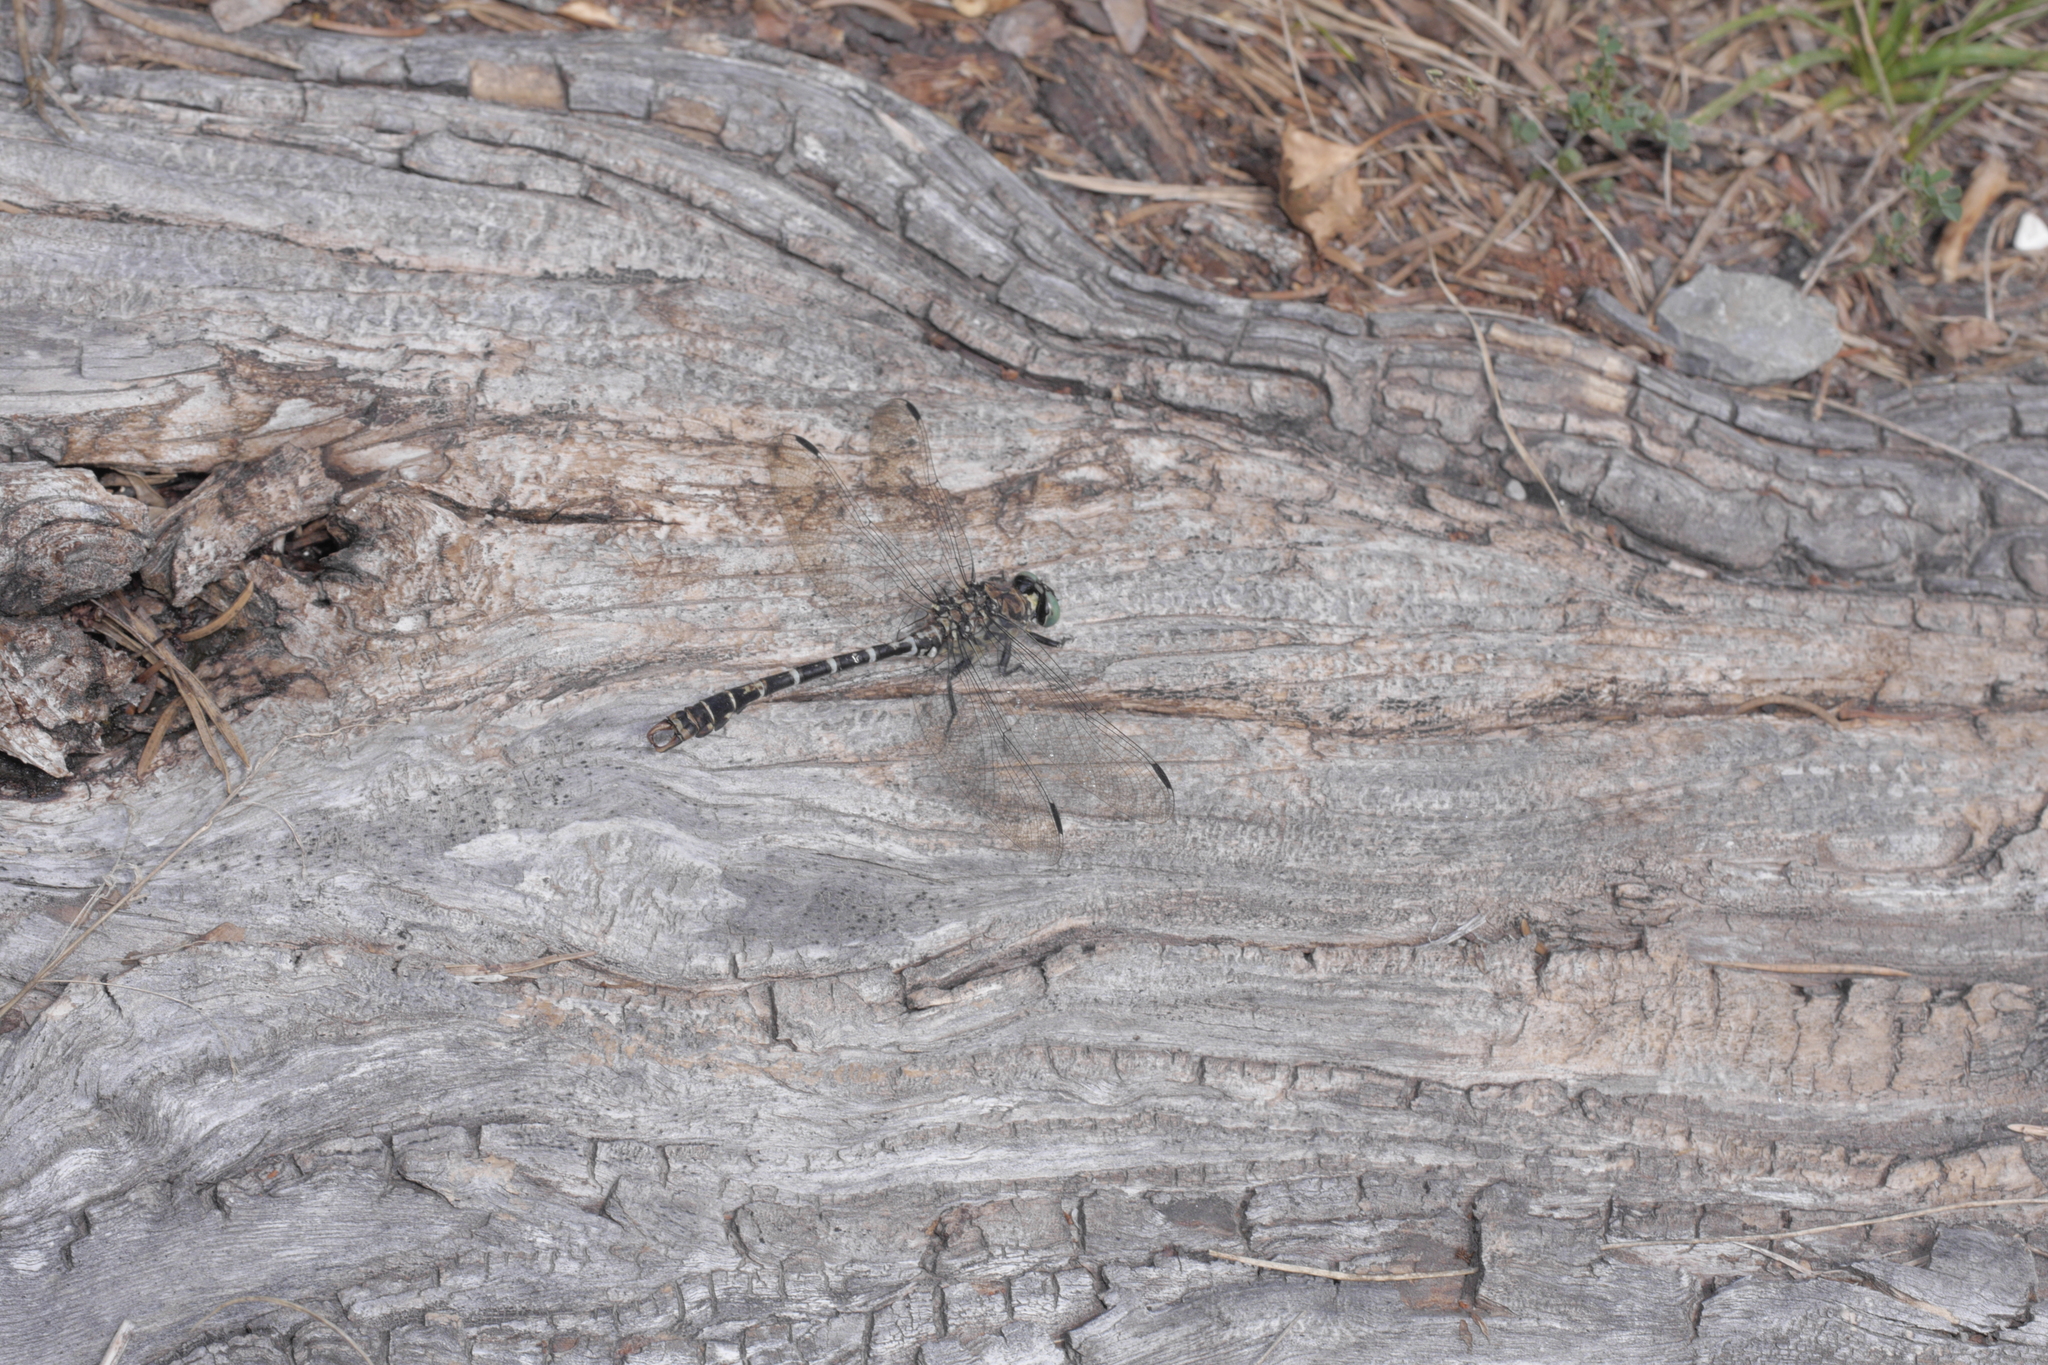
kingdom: Animalia
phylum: Arthropoda
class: Insecta
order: Odonata
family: Gomphidae
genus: Onychogomphus
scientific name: Onychogomphus forcipatus
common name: Small pincertail
